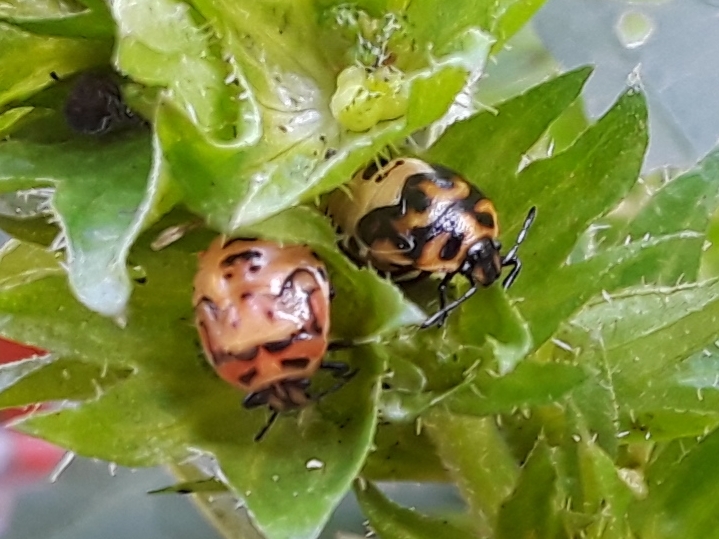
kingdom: Animalia
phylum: Arthropoda
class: Insecta
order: Hemiptera
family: Pentatomidae
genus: Cosmopepla
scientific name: Cosmopepla lintneriana
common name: Twice-stabbed stink bug
